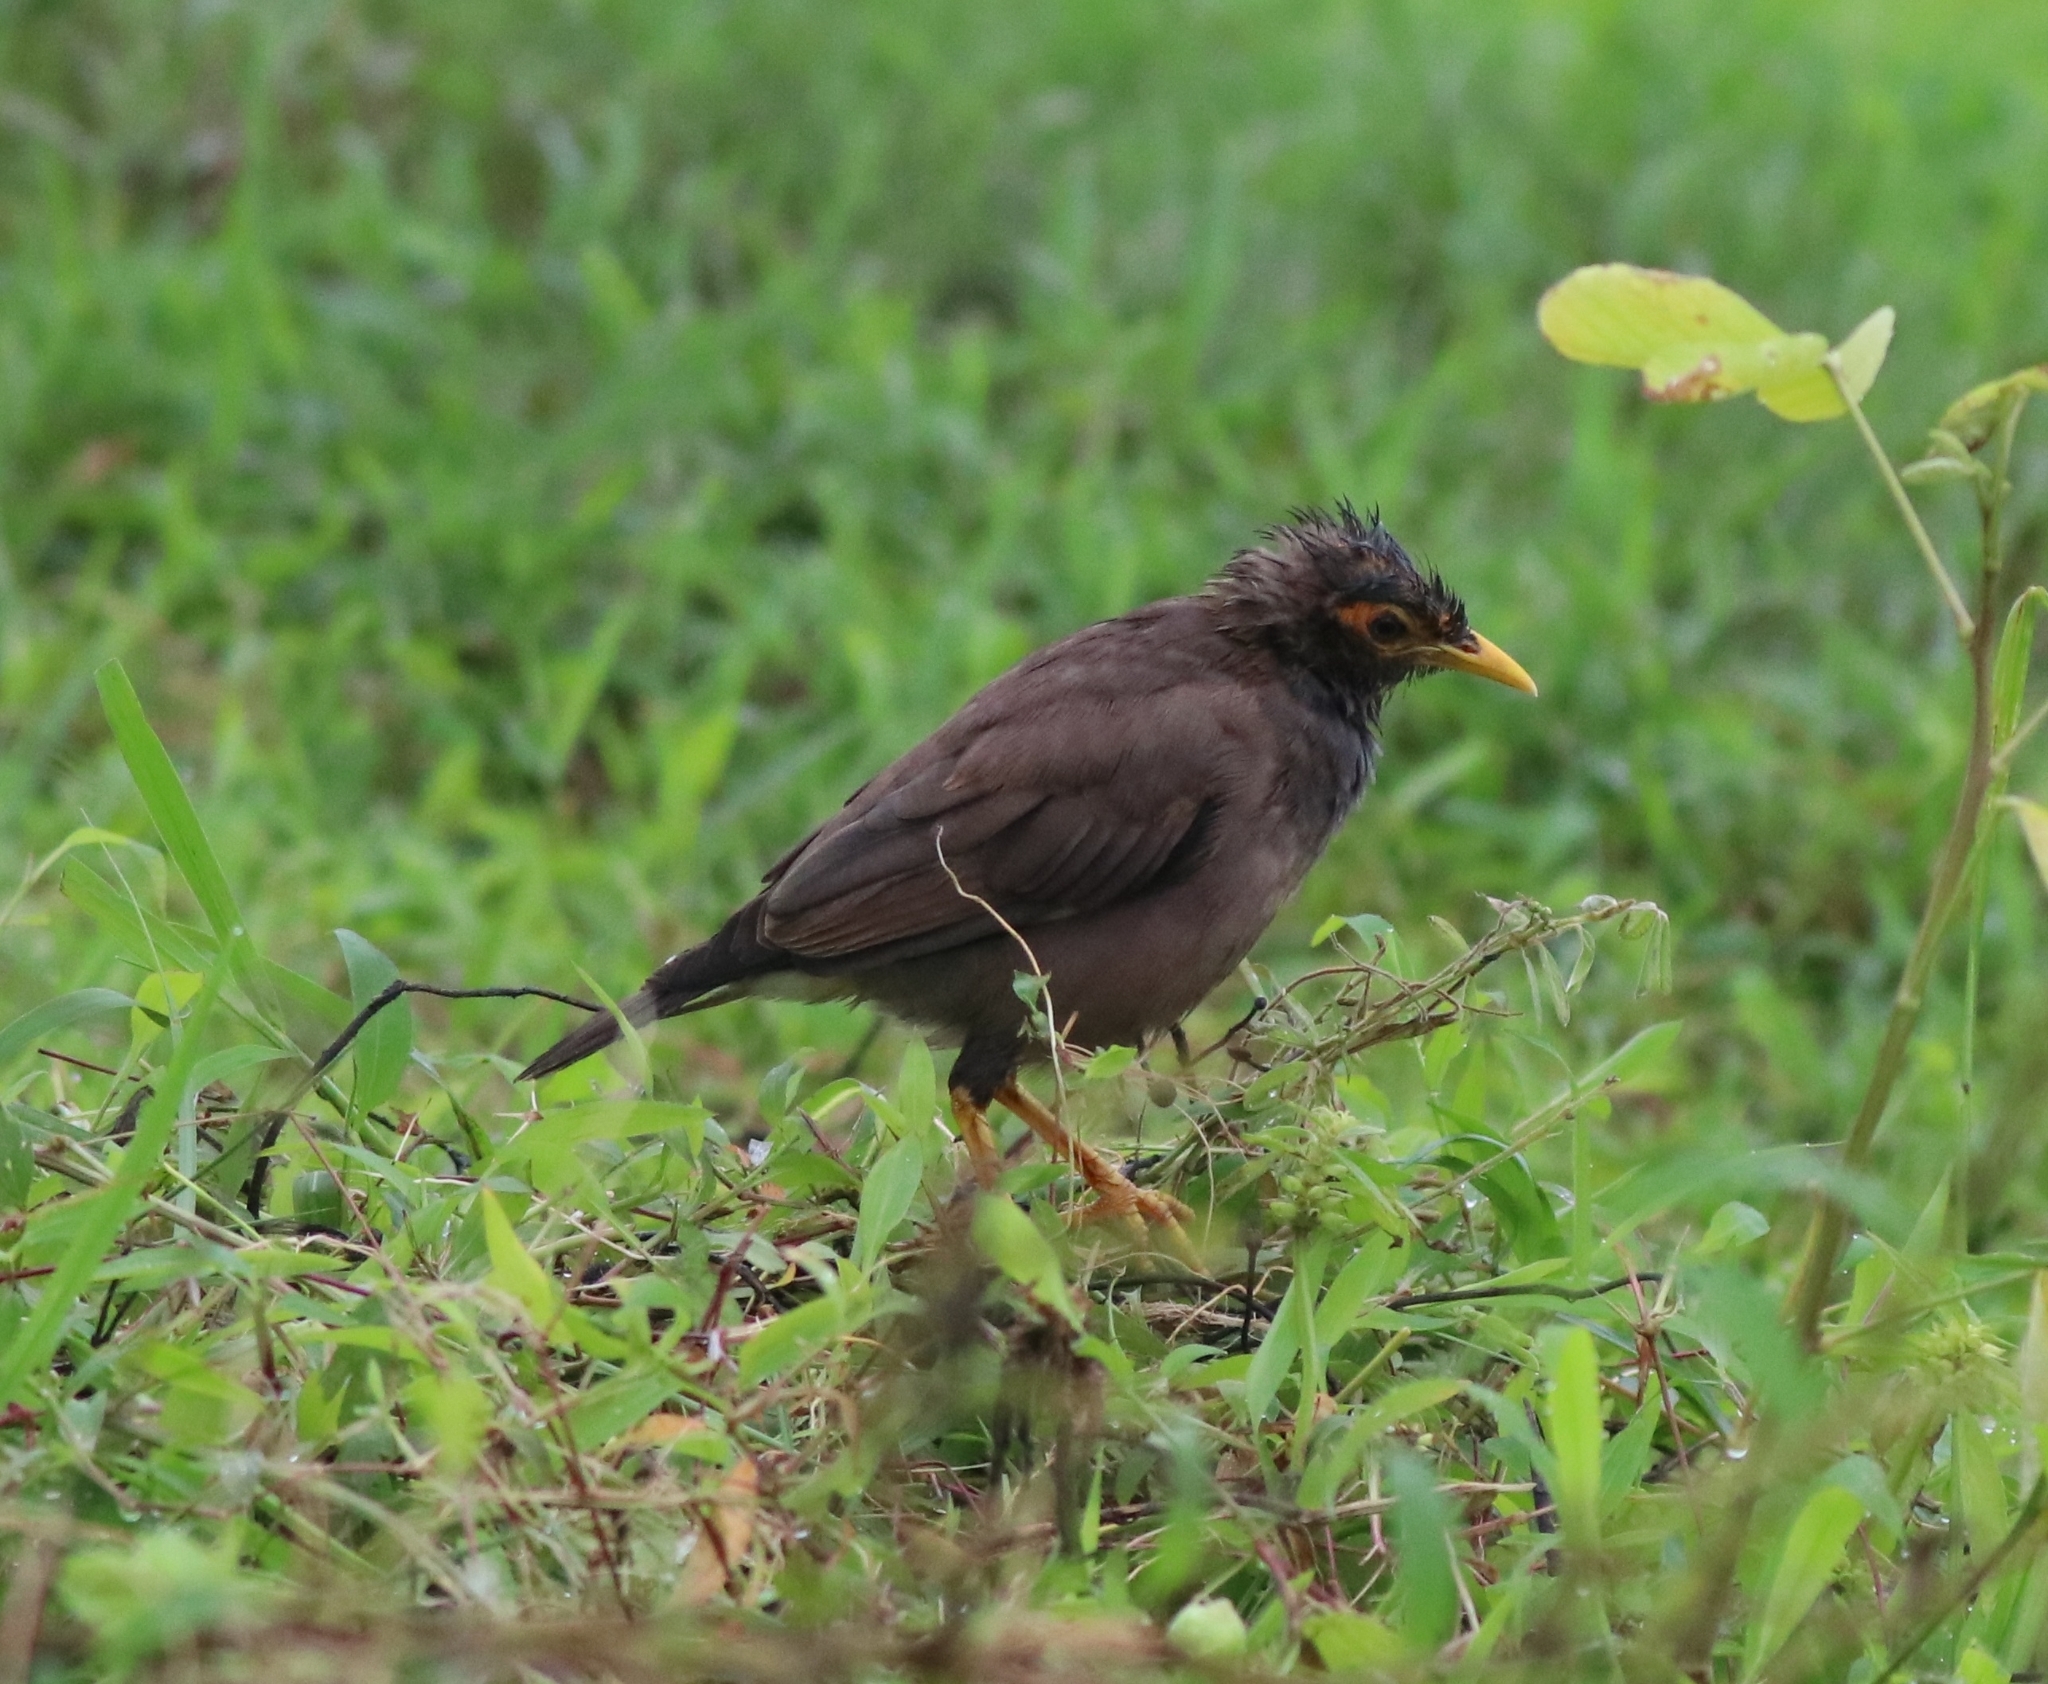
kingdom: Animalia
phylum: Chordata
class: Aves
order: Passeriformes
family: Sturnidae
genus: Acridotheres
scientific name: Acridotheres tristis
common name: Common myna
